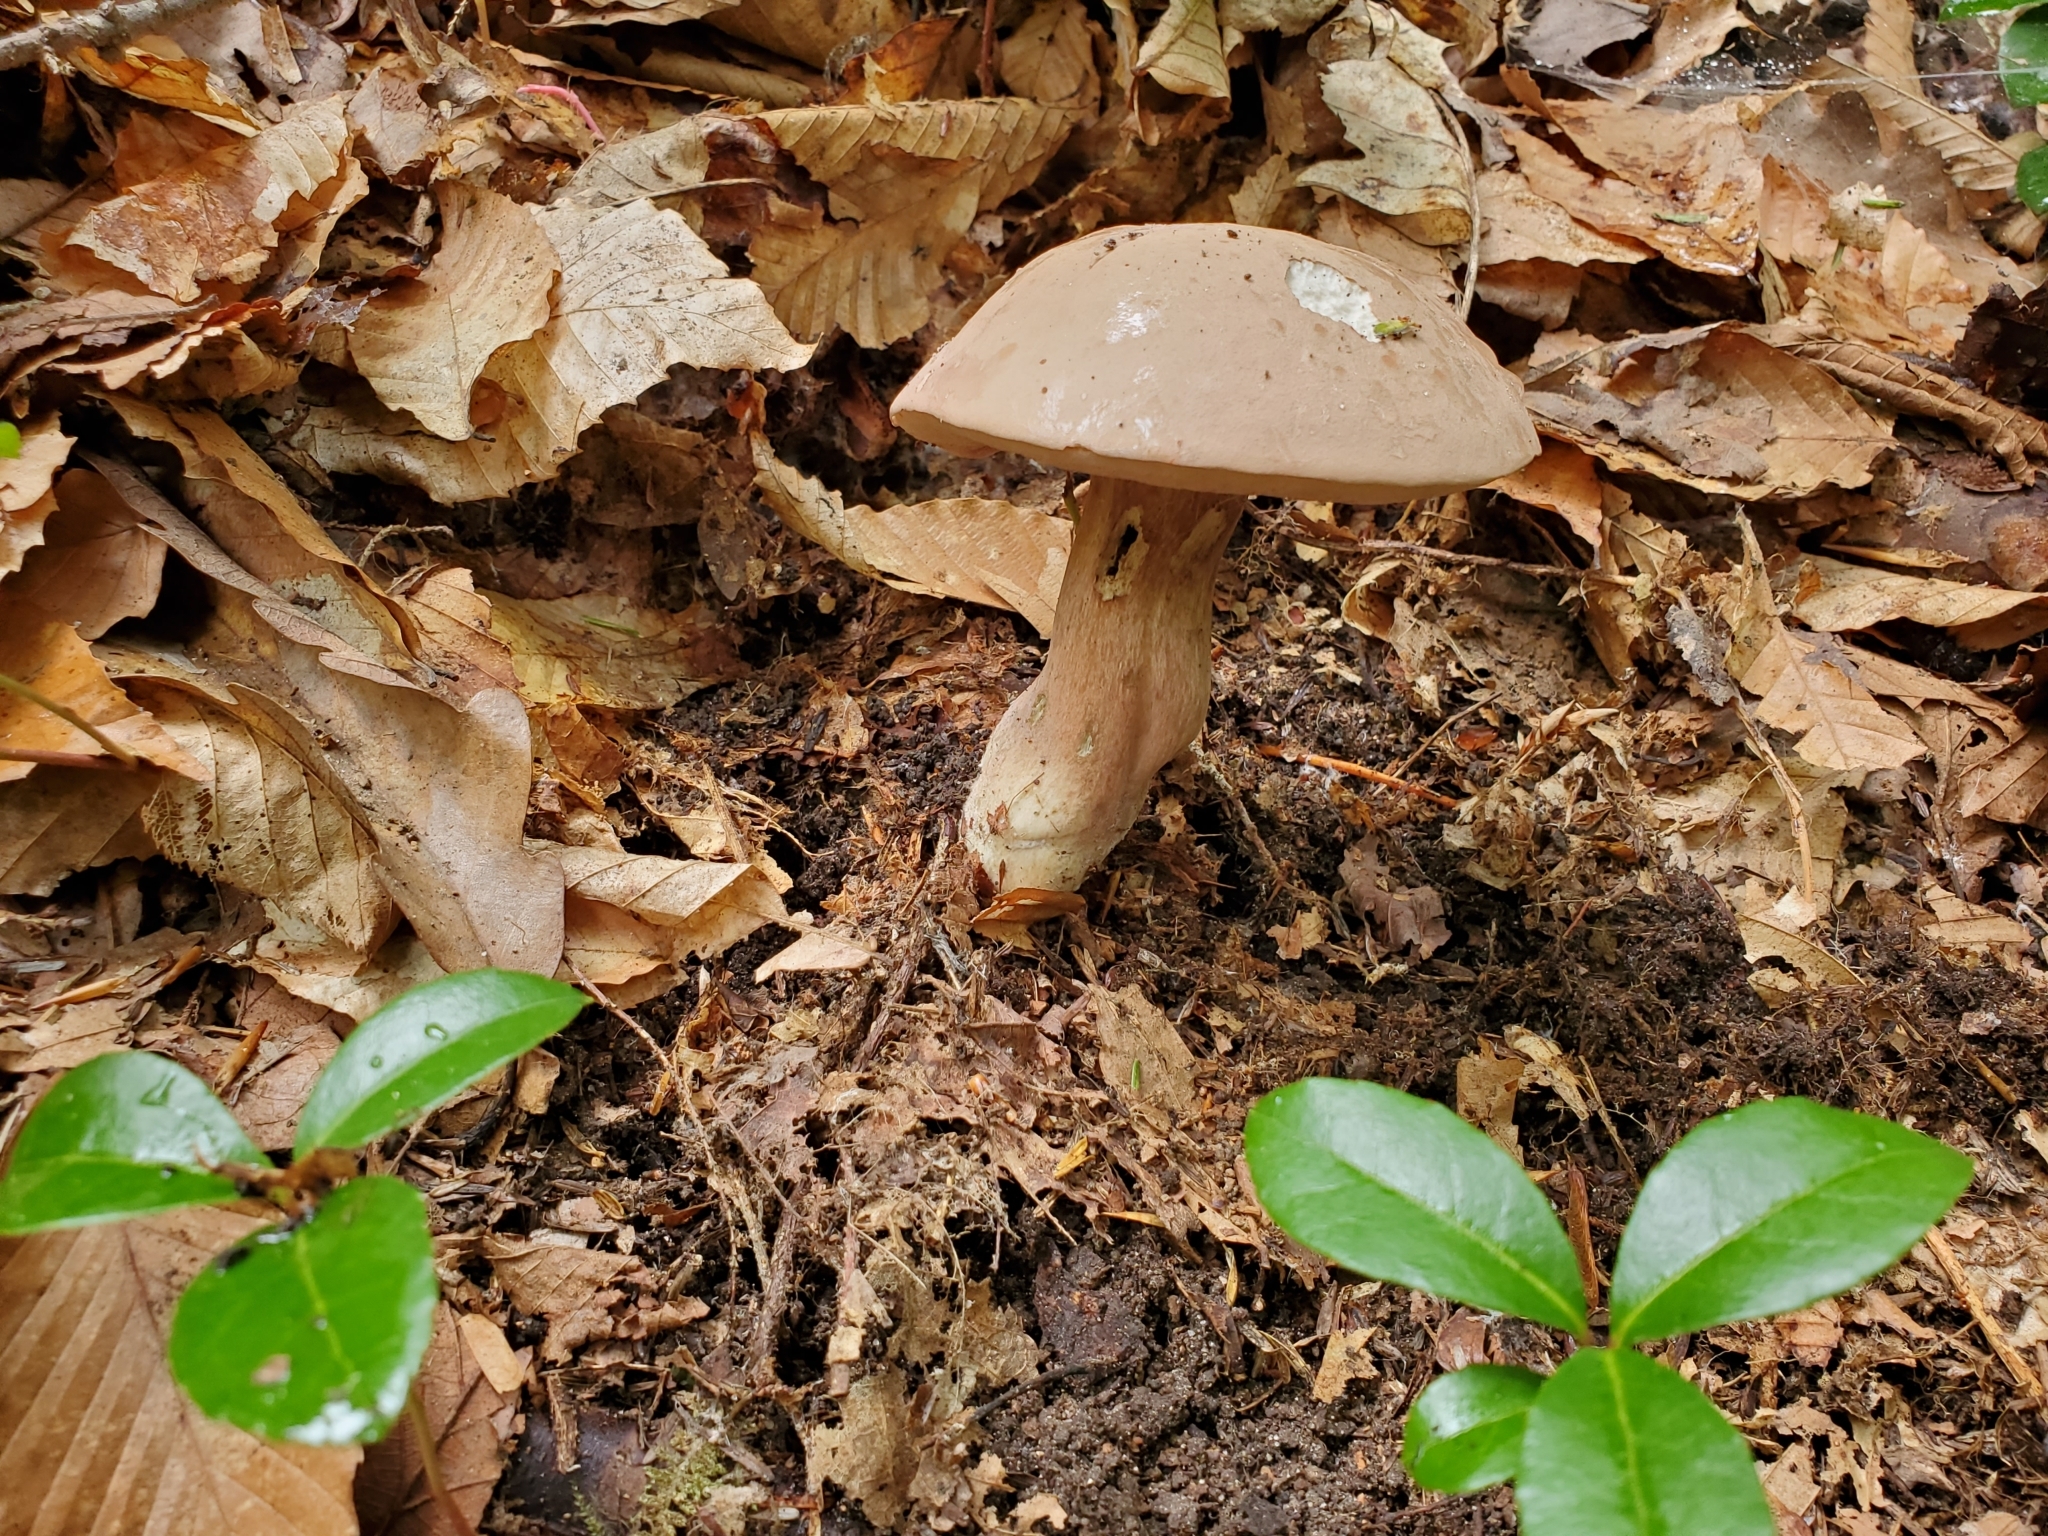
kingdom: Fungi
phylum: Basidiomycota
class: Agaricomycetes
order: Boletales
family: Boletaceae
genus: Tylopilus
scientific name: Tylopilus rubrobrunneus
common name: Reddish brown bitter bolete
